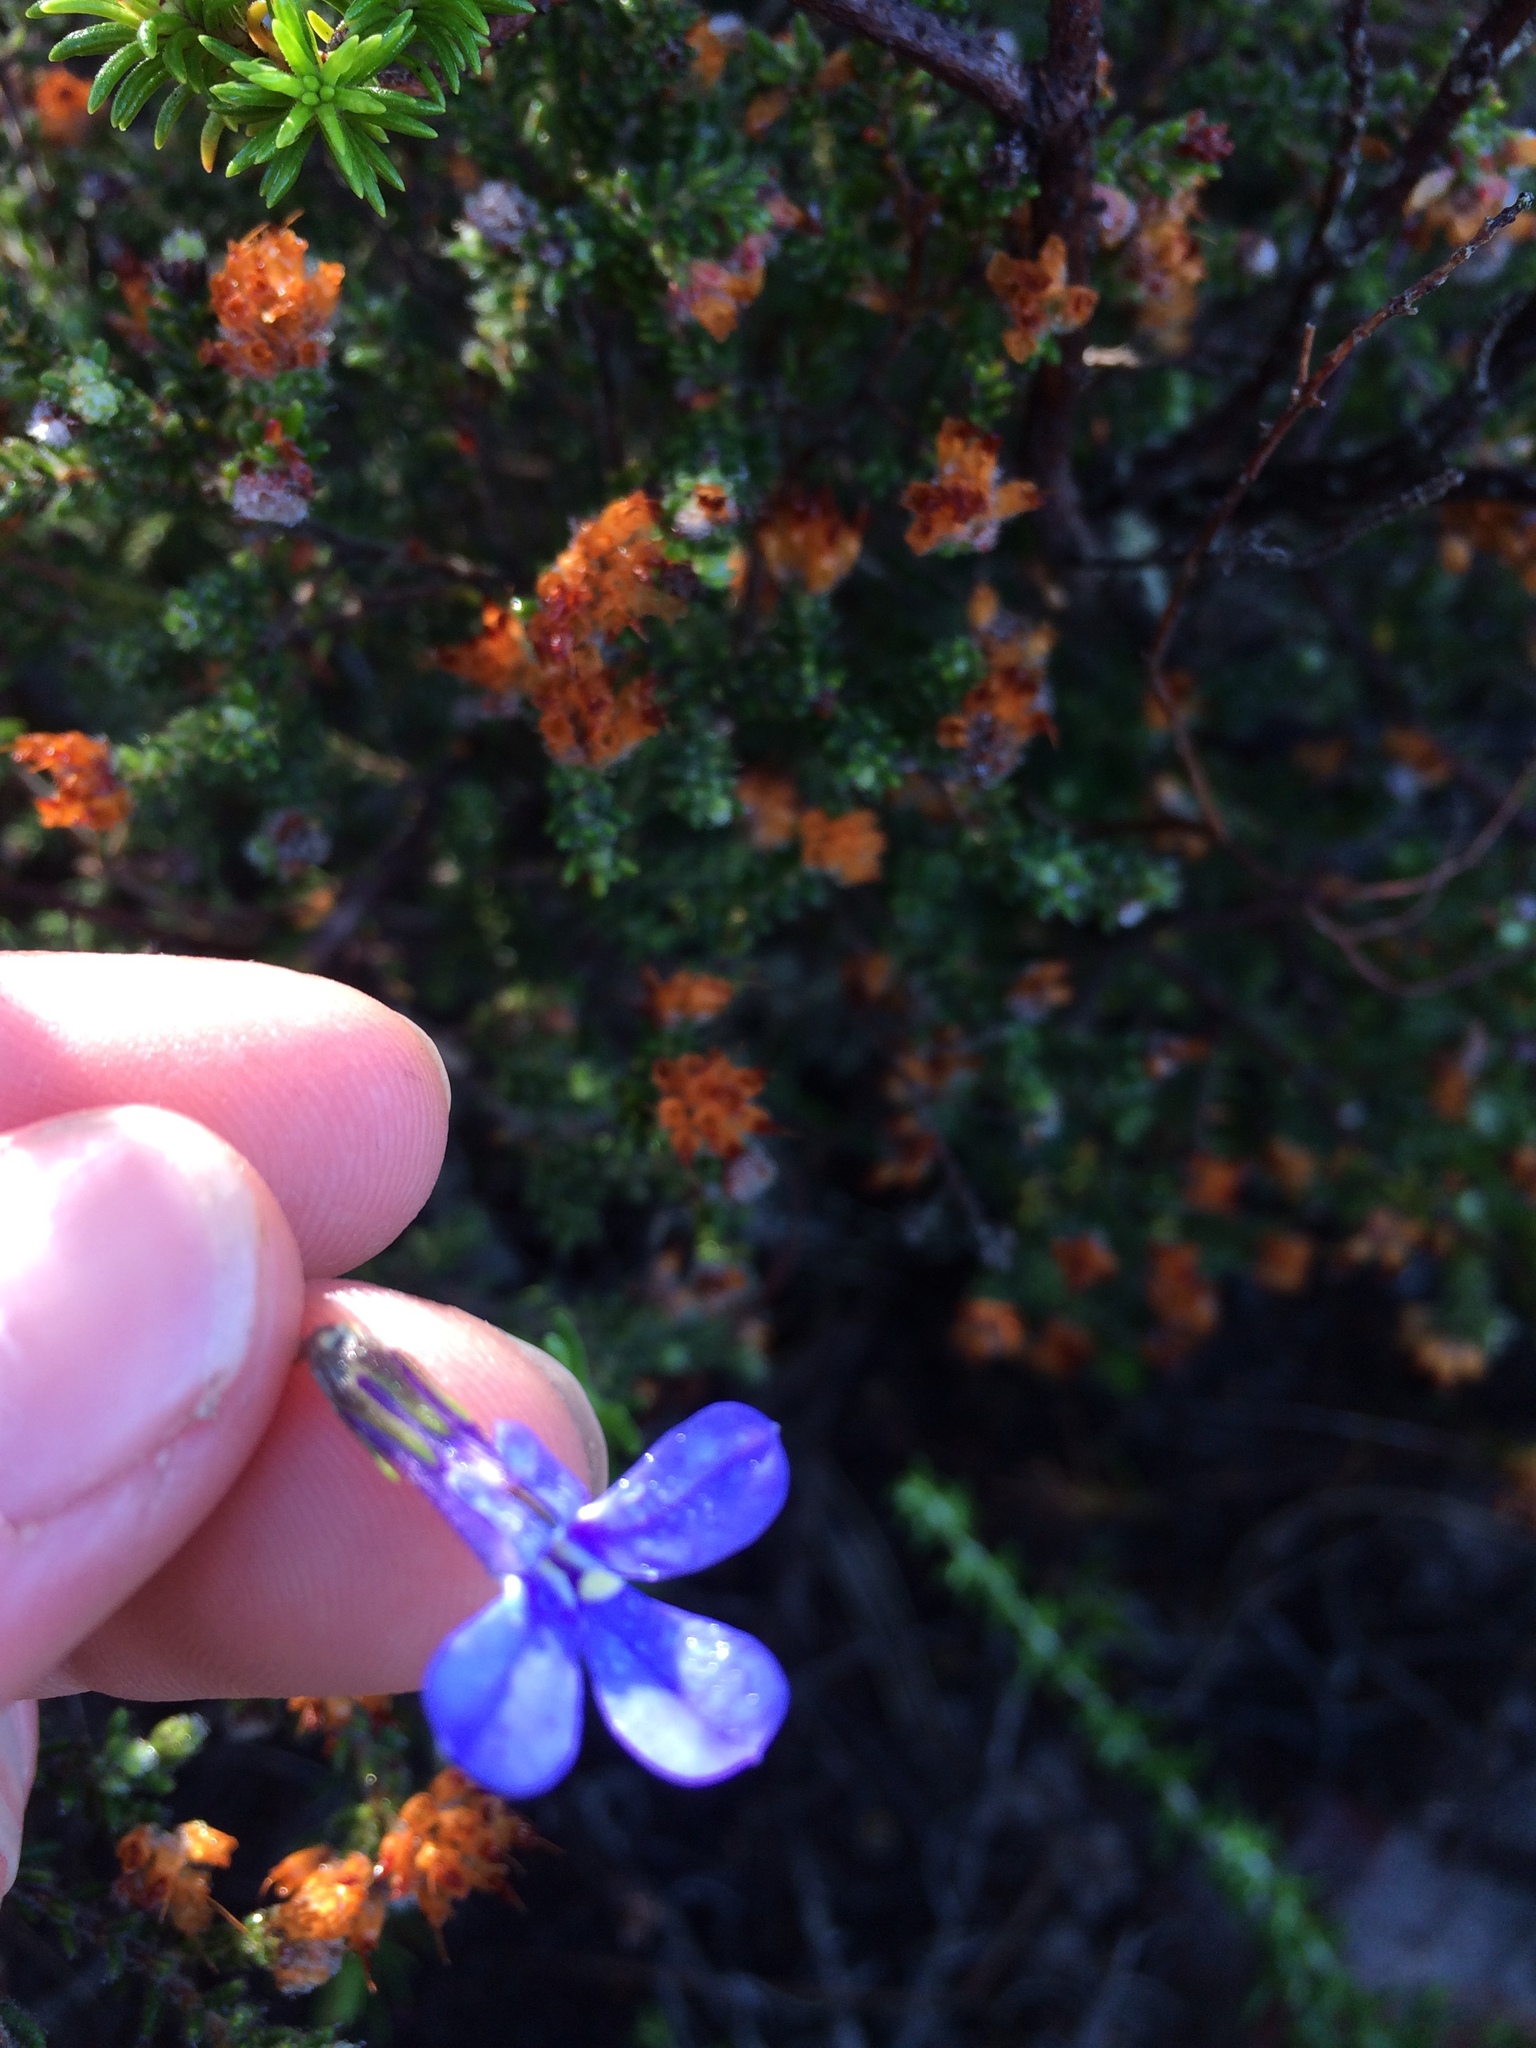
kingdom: Plantae
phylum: Tracheophyta
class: Magnoliopsida
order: Asterales
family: Campanulaceae
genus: Lobelia
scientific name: Lobelia pinifolia
